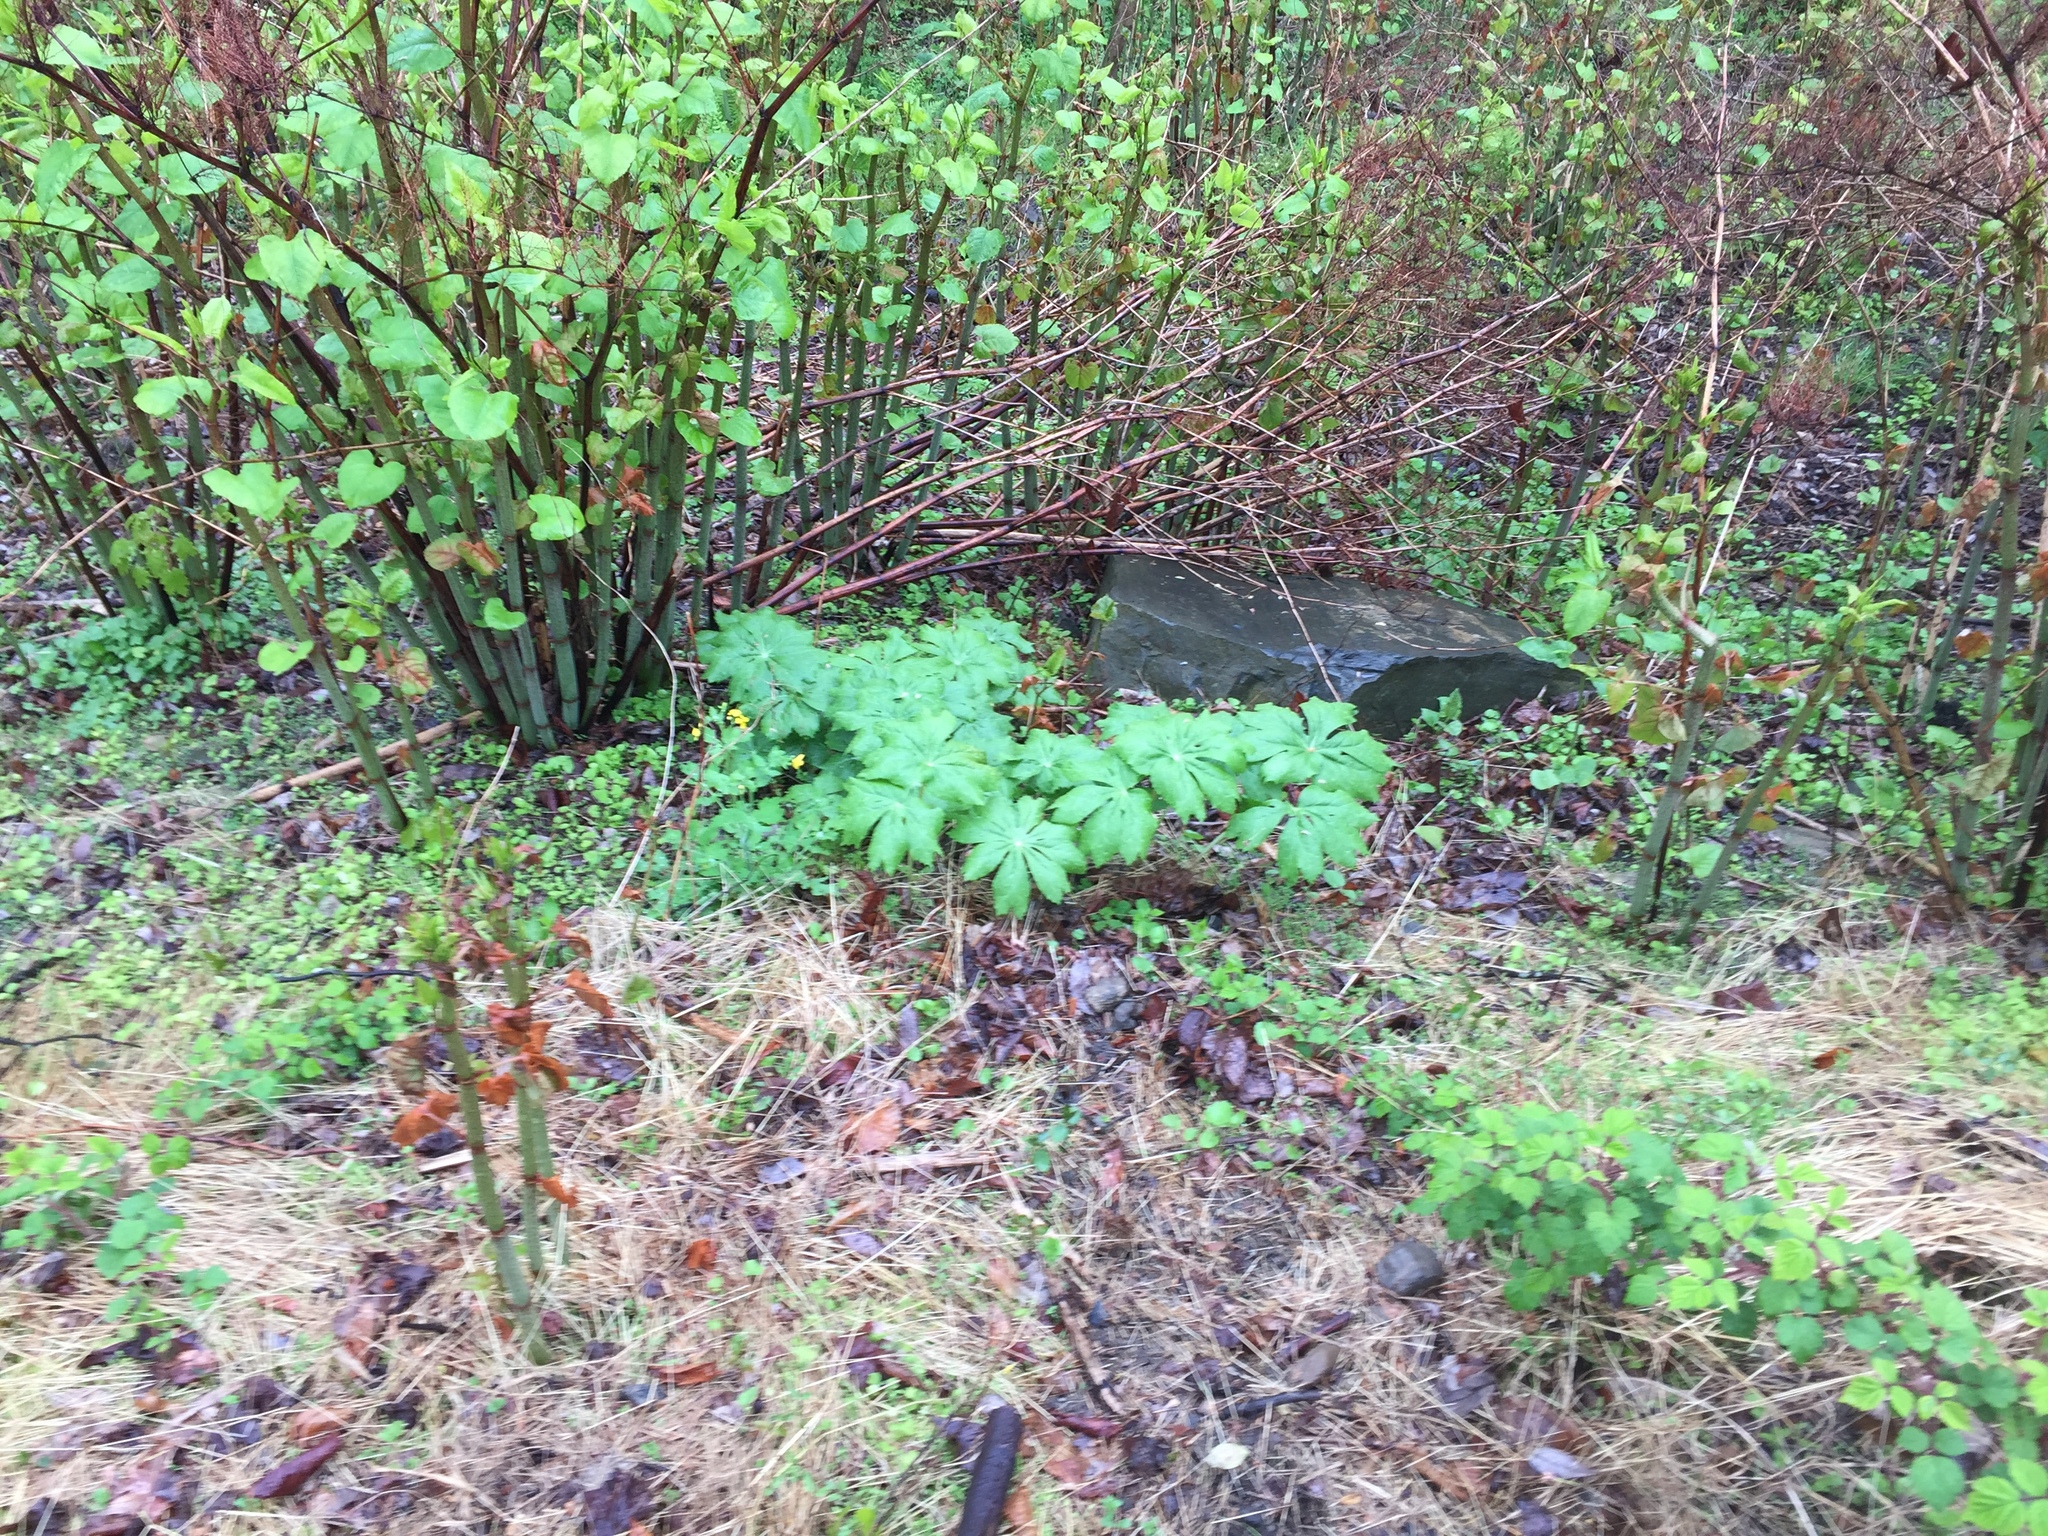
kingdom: Plantae
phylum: Tracheophyta
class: Magnoliopsida
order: Ranunculales
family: Berberidaceae
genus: Podophyllum
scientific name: Podophyllum peltatum
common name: Wild mandrake
